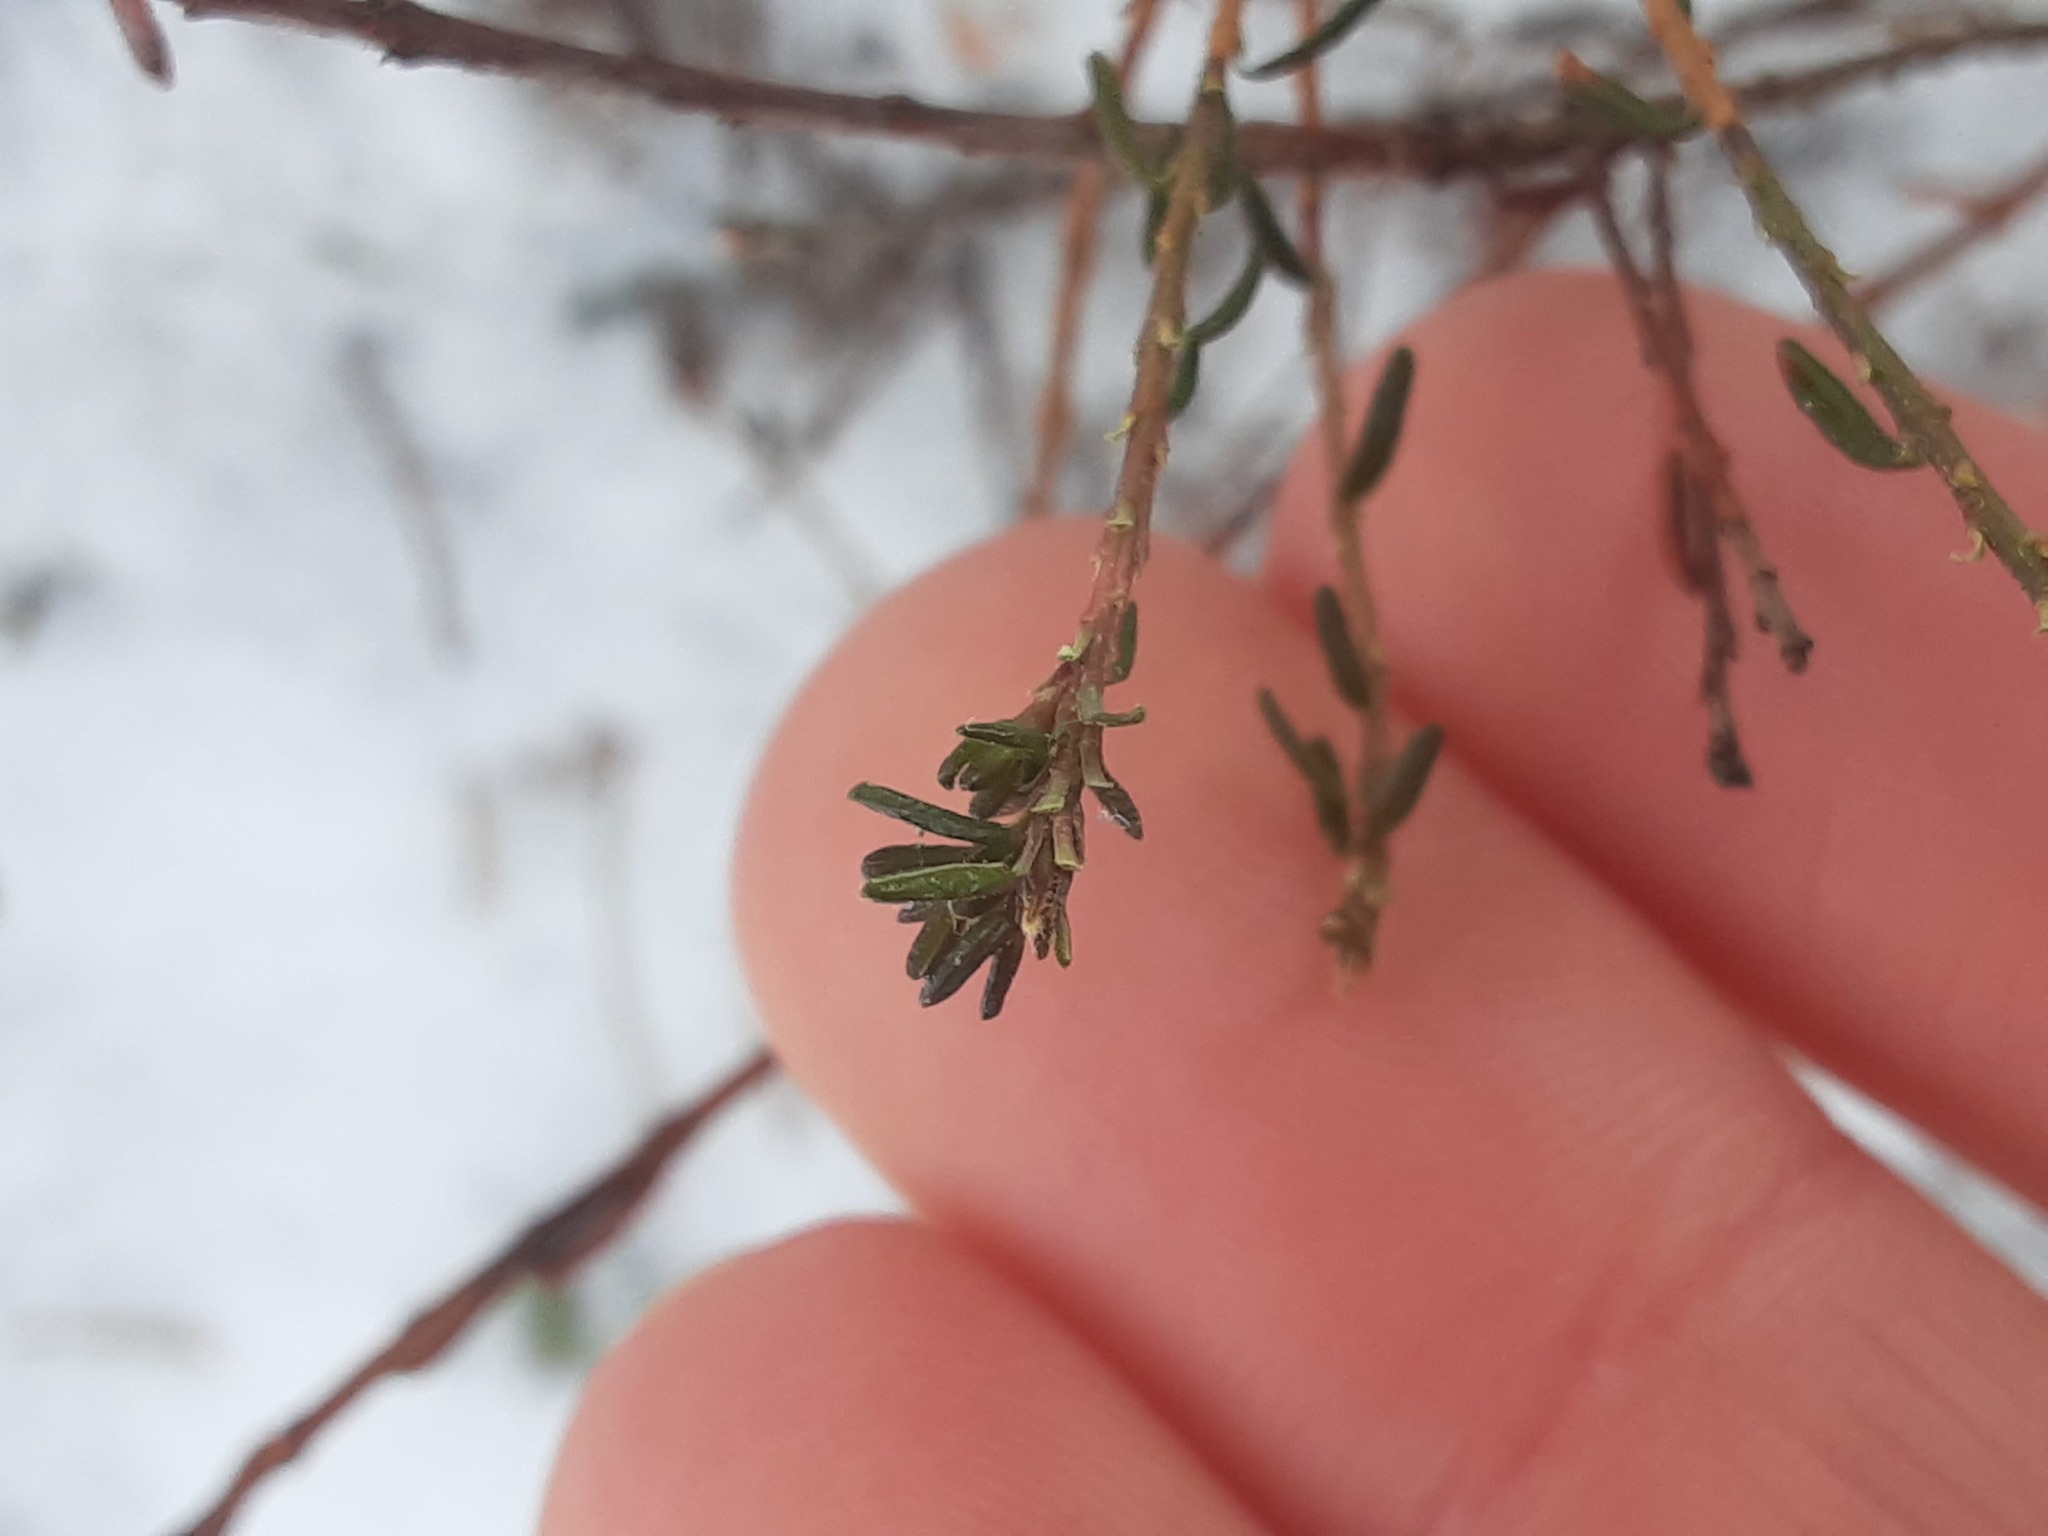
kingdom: Plantae
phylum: Tracheophyta
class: Magnoliopsida
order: Ericales
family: Ericaceae
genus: Empetrum
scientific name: Empetrum nigrum
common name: Black crowberry
